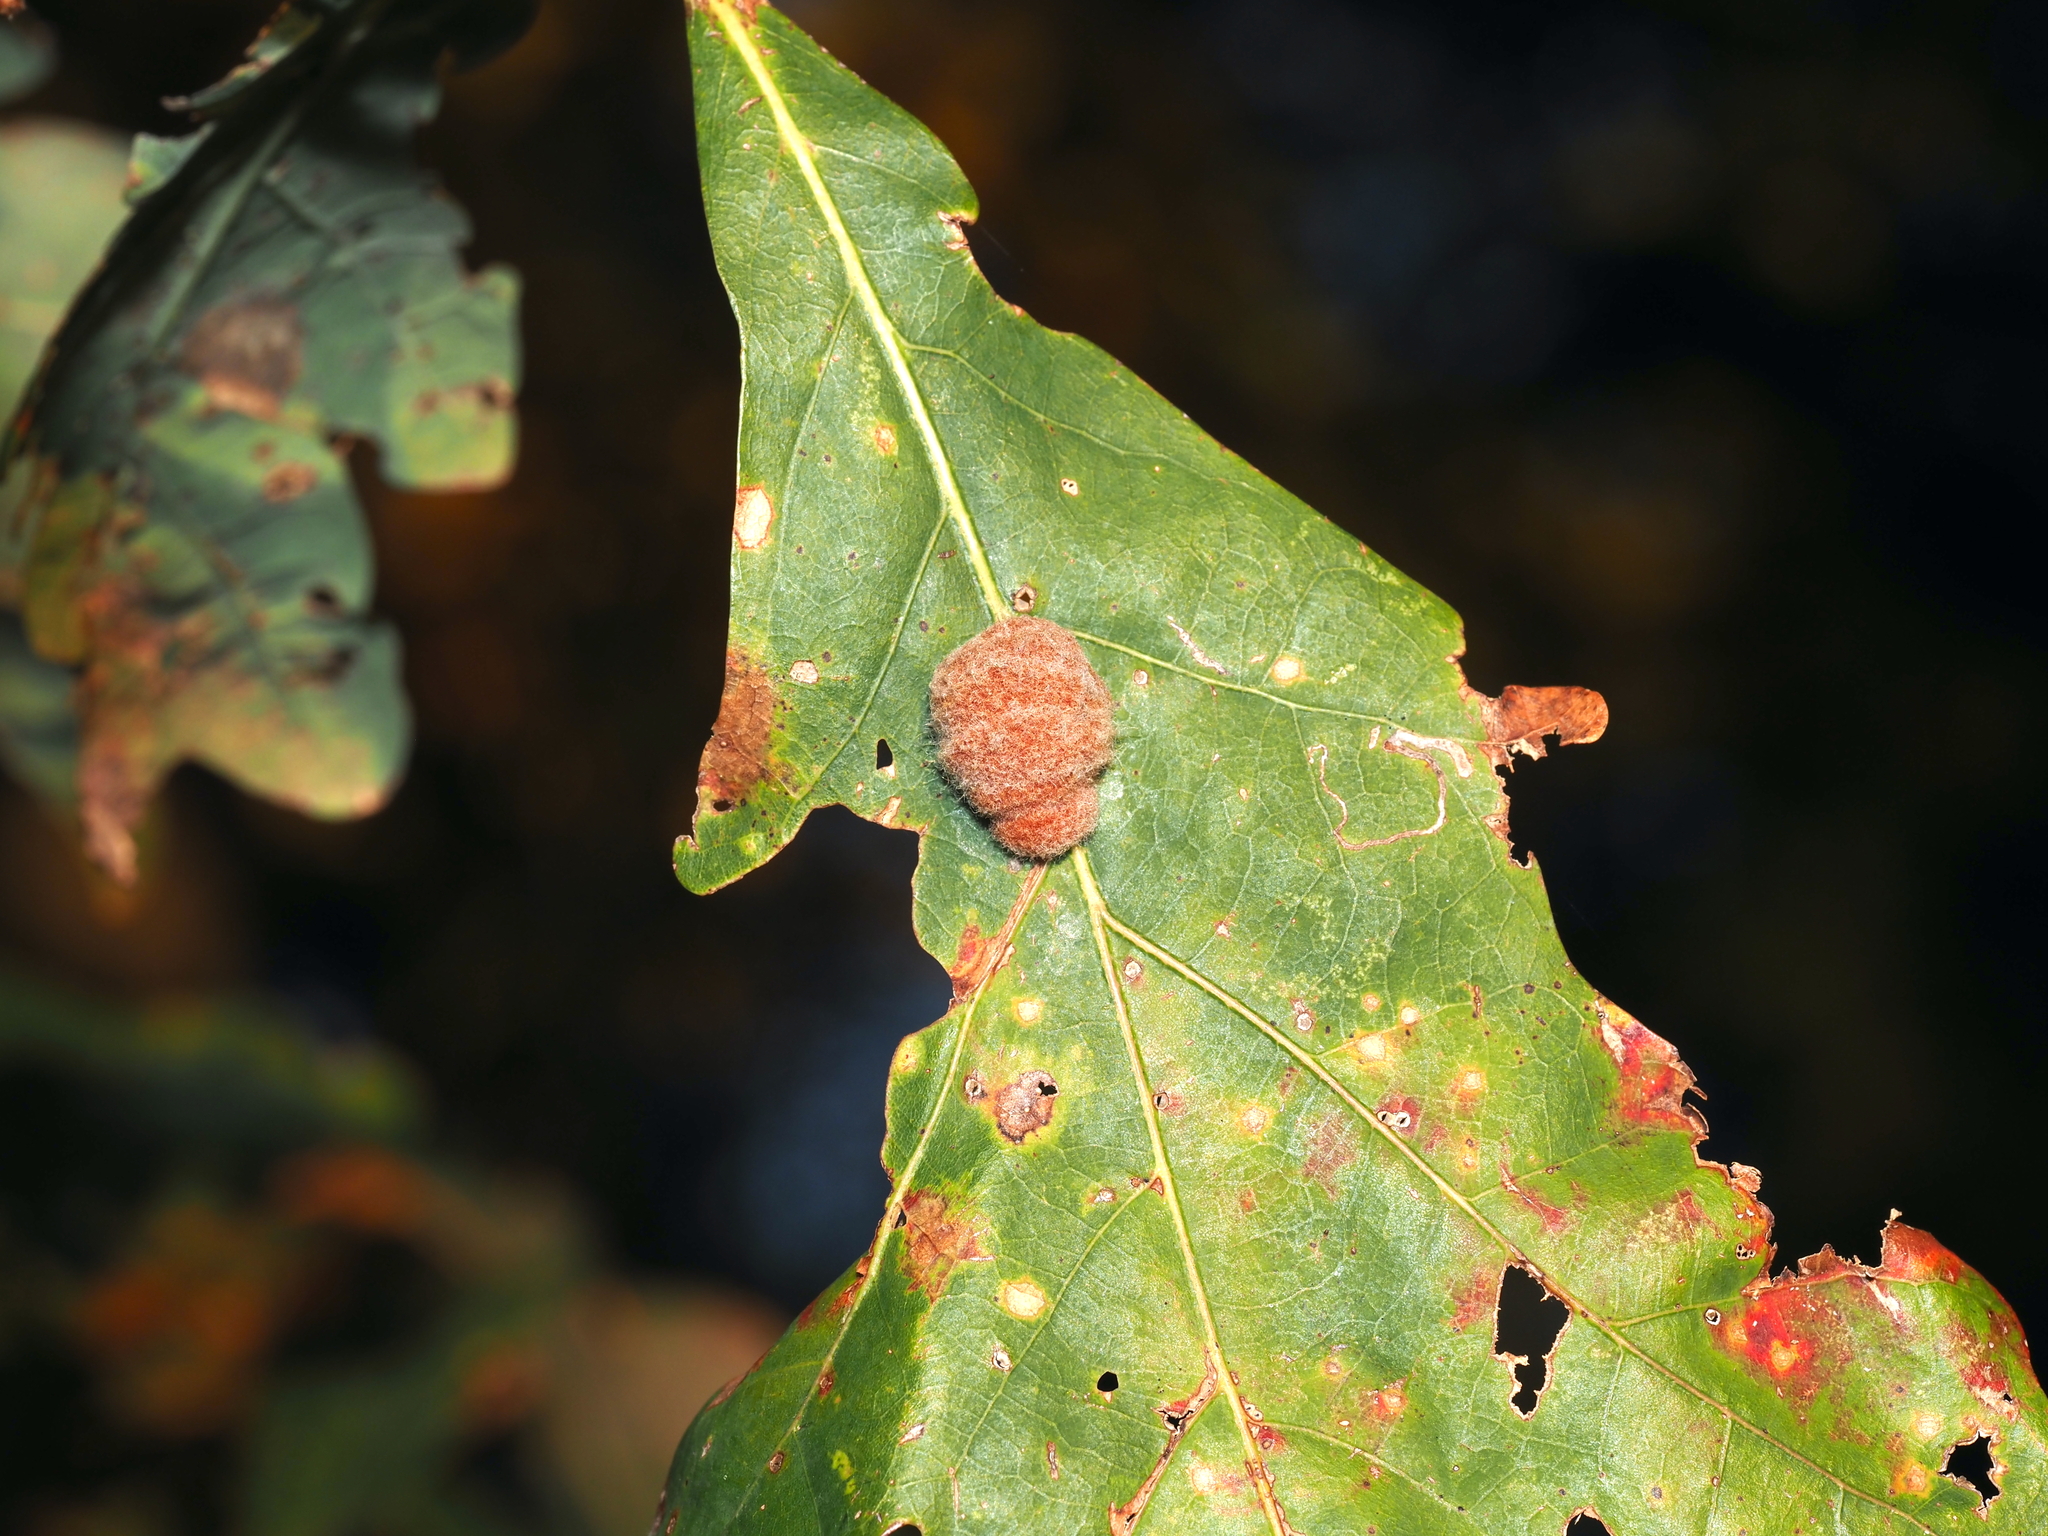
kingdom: Animalia
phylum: Arthropoda
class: Insecta
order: Hymenoptera
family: Cynipidae
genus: Andricus
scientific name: Andricus quercusflocci
